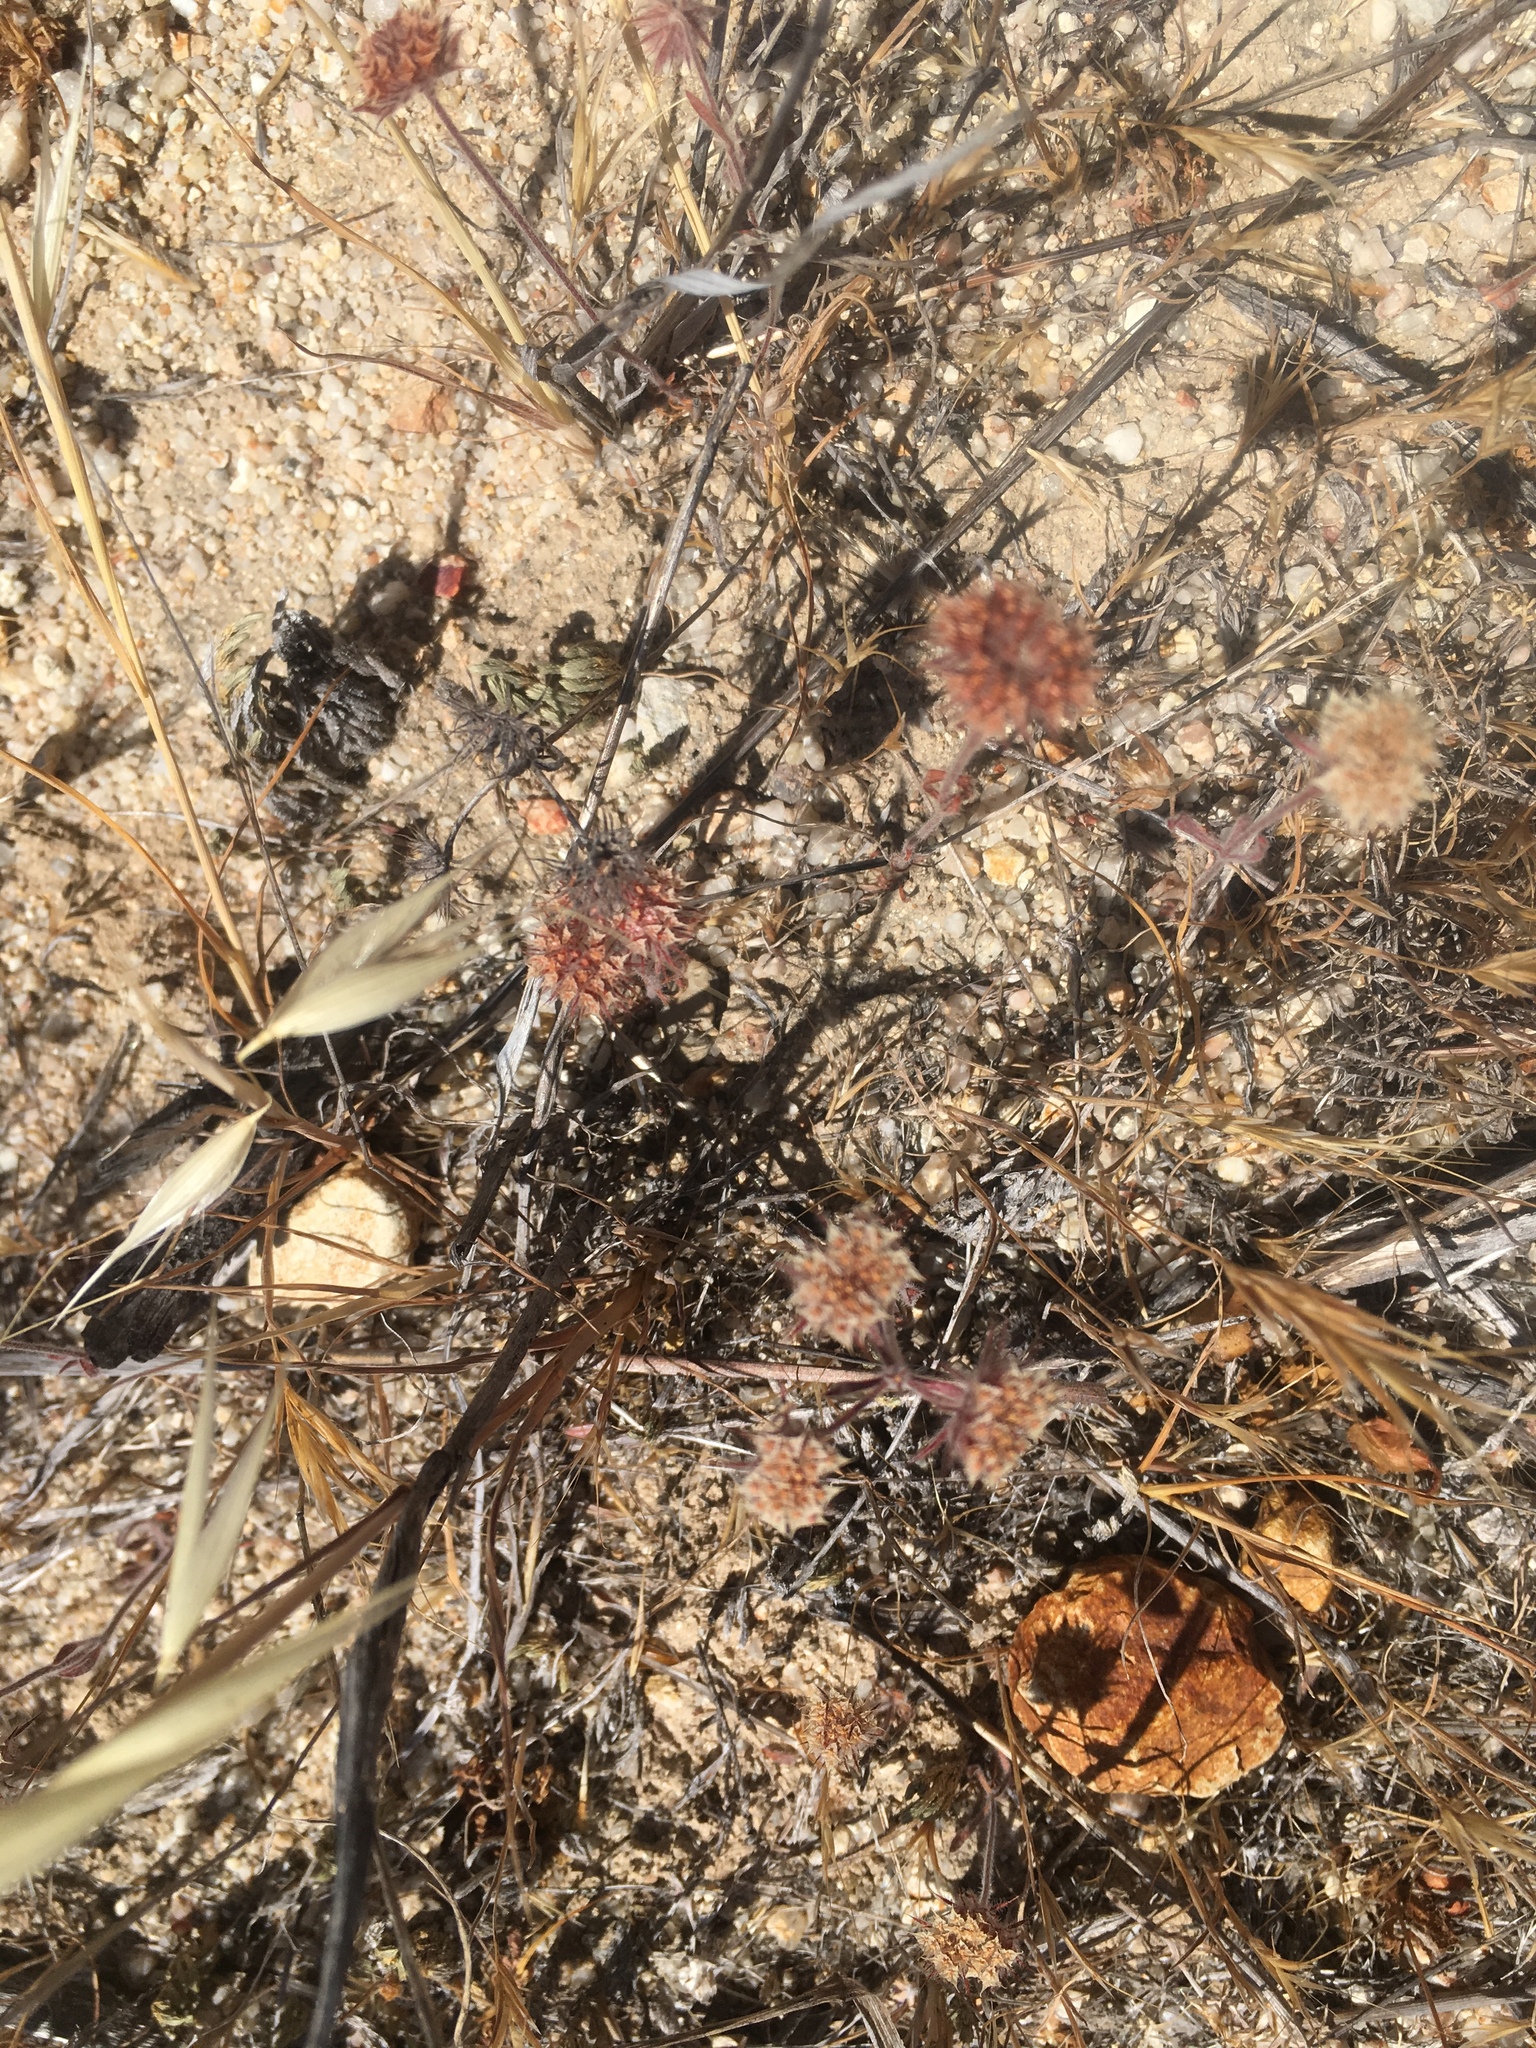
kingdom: Plantae
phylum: Tracheophyta
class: Magnoliopsida
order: Caryophyllales
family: Polygonaceae
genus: Chorizanthe
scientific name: Chorizanthe douglasii
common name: Douglas's spineflower
